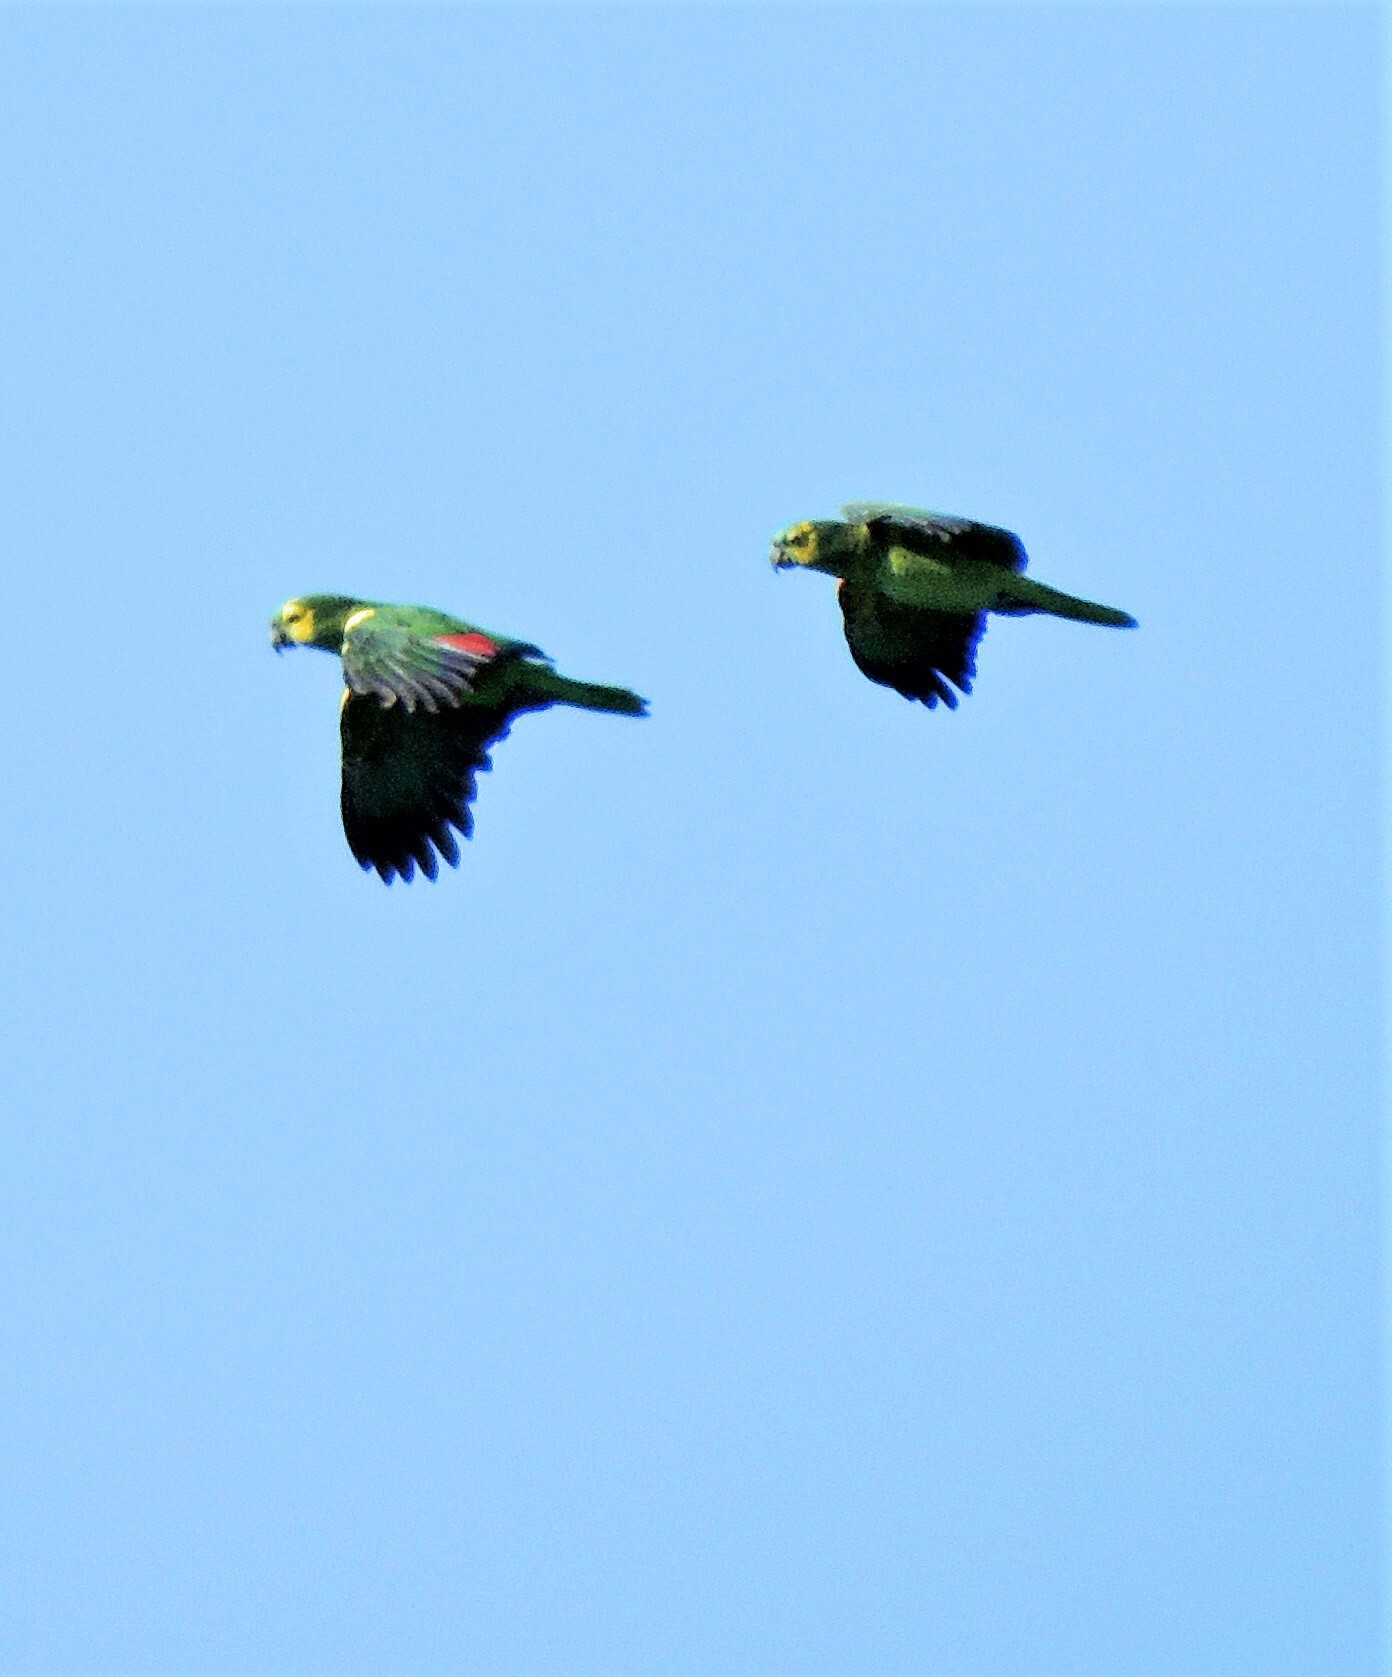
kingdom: Animalia
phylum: Chordata
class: Aves
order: Psittaciformes
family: Psittacidae
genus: Amazona
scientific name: Amazona aestiva
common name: Turquoise-fronted amazon
